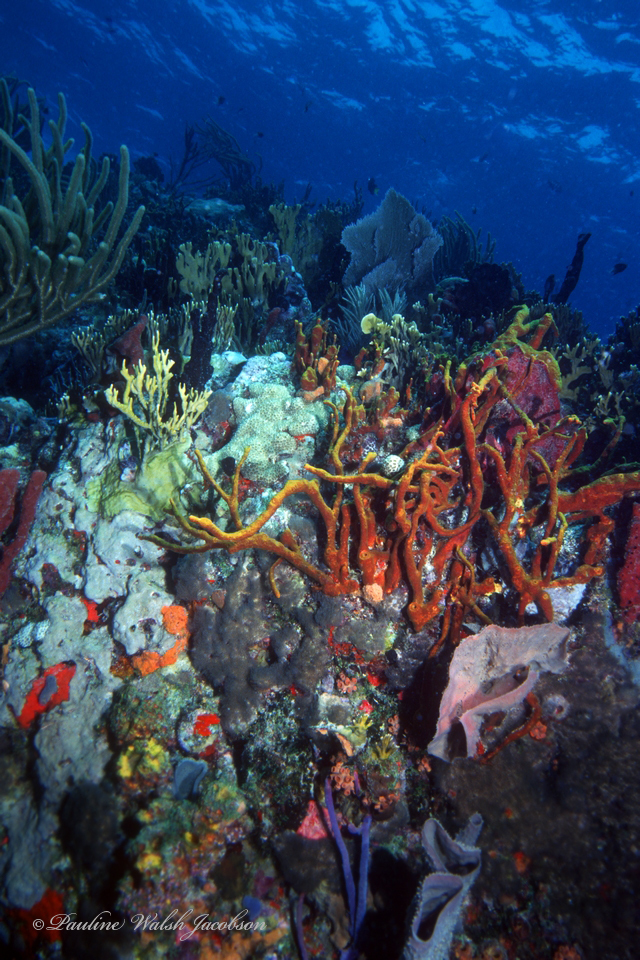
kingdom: Animalia
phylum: Porifera
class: Demospongiae
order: Verongiida
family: Aplysinidae
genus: Aplysina
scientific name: Aplysina fulva
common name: Scattered pore rope sponge
